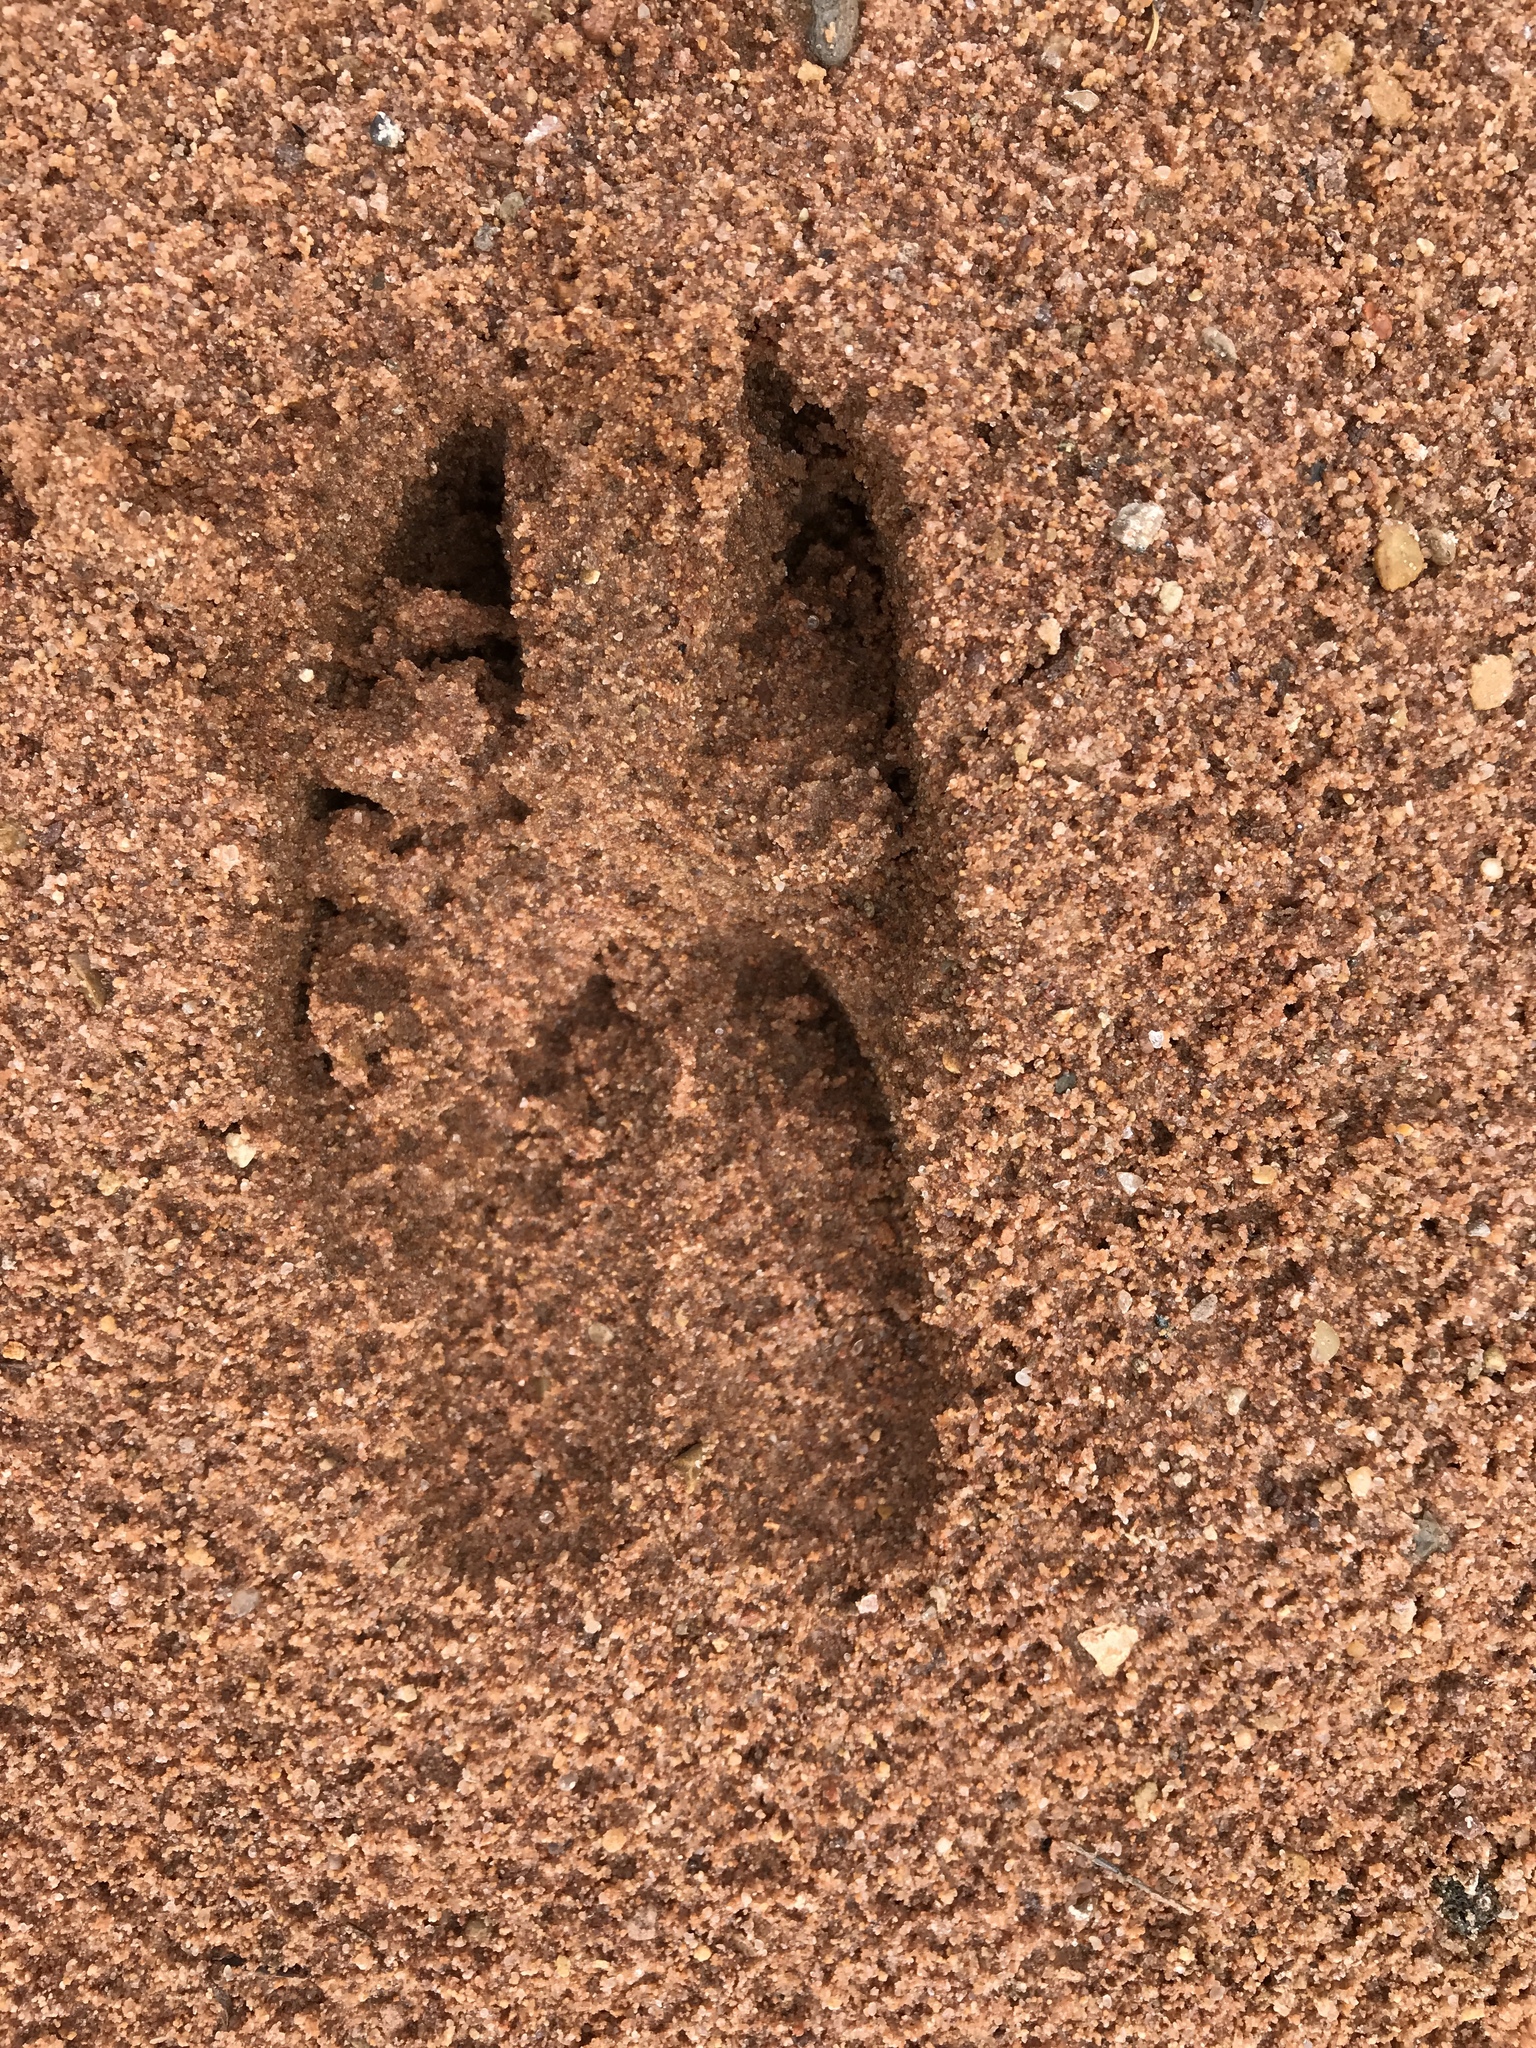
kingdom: Animalia
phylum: Chordata
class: Mammalia
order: Artiodactyla
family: Cervidae
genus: Odocoileus
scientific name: Odocoileus hemionus
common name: Mule deer
